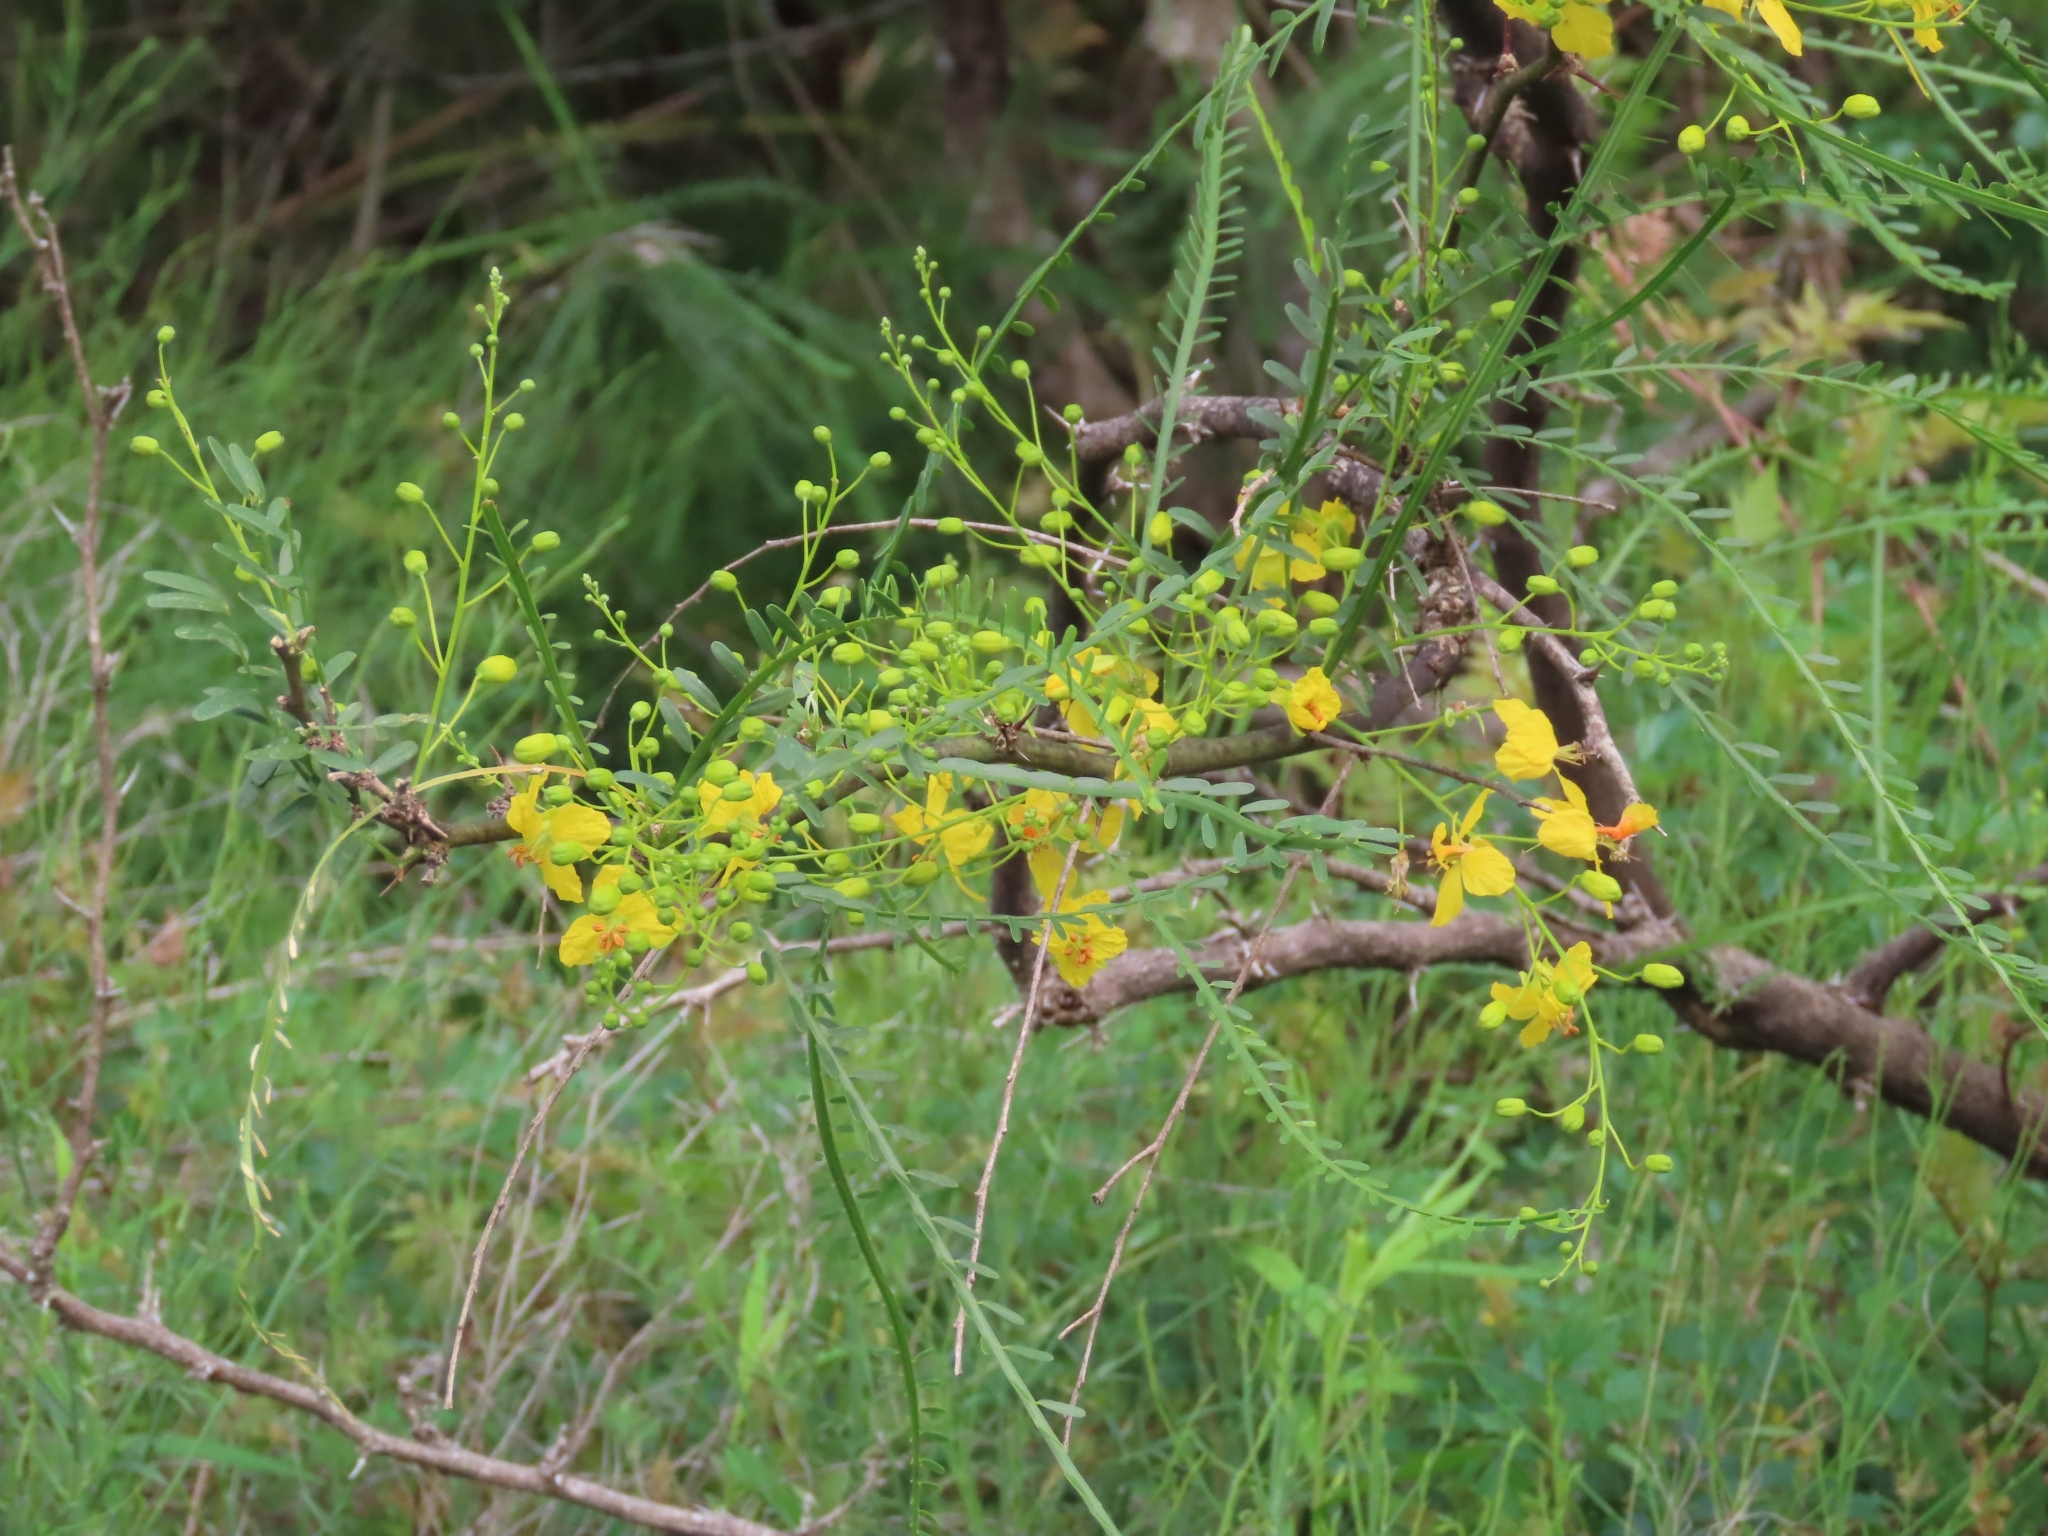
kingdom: Plantae
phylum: Tracheophyta
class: Magnoliopsida
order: Fabales
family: Fabaceae
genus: Parkinsonia
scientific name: Parkinsonia aculeata
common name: Jerusalem thorn
